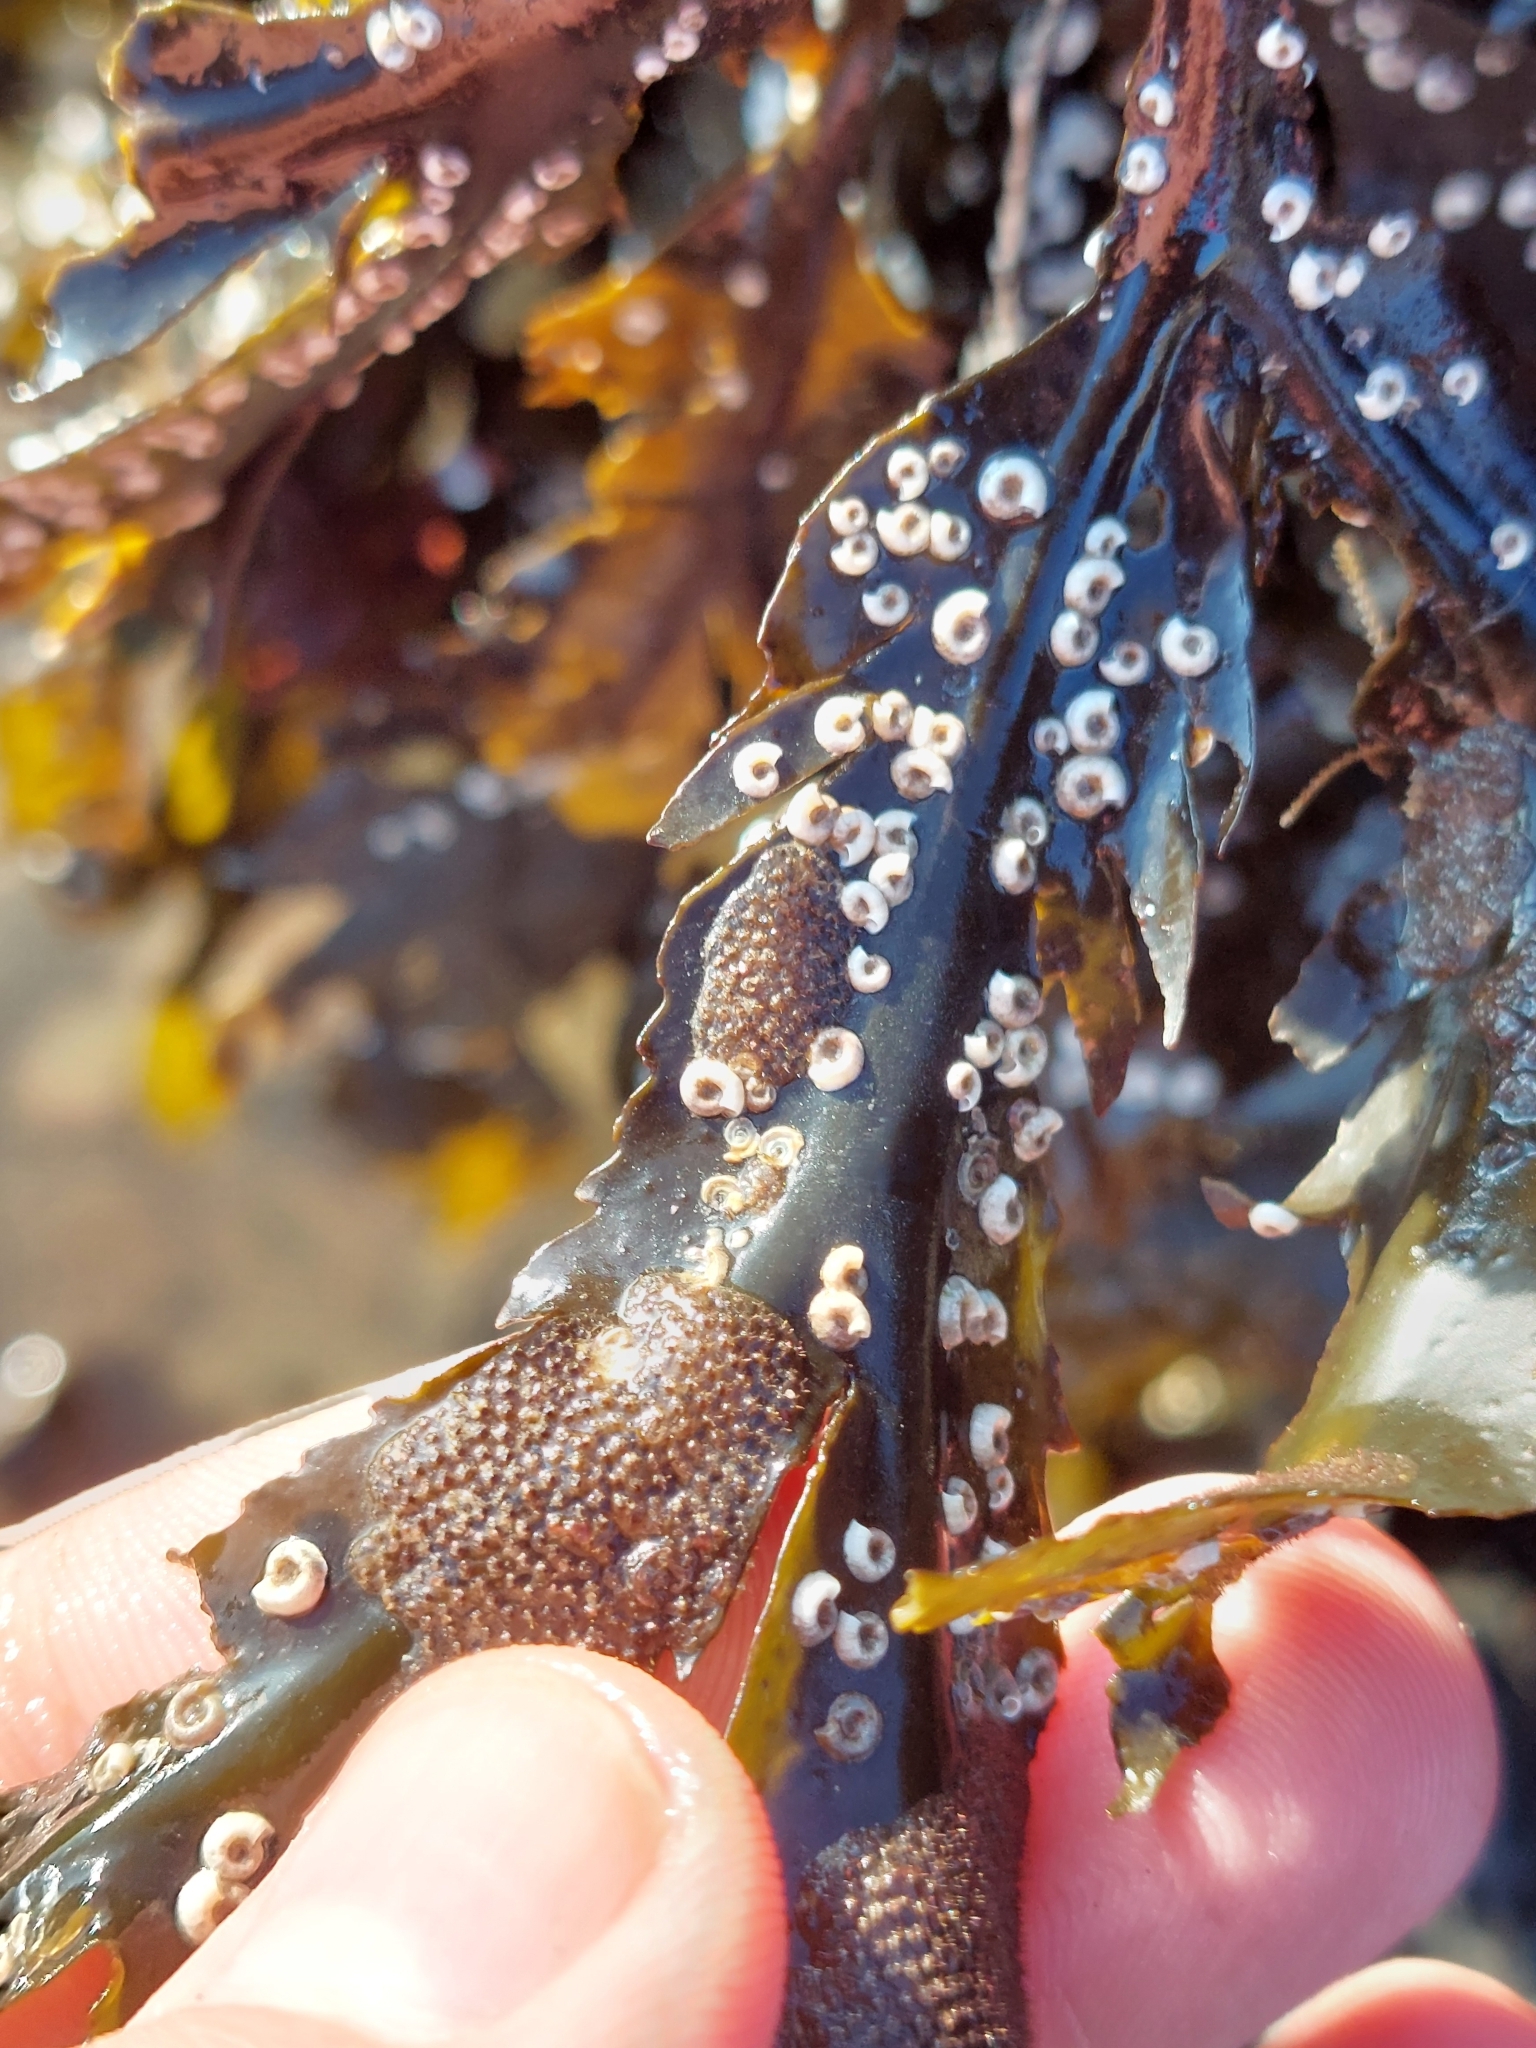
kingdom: Animalia
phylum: Annelida
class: Polychaeta
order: Sabellida
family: Serpulidae
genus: Spirorbis
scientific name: Spirorbis spirorbis
